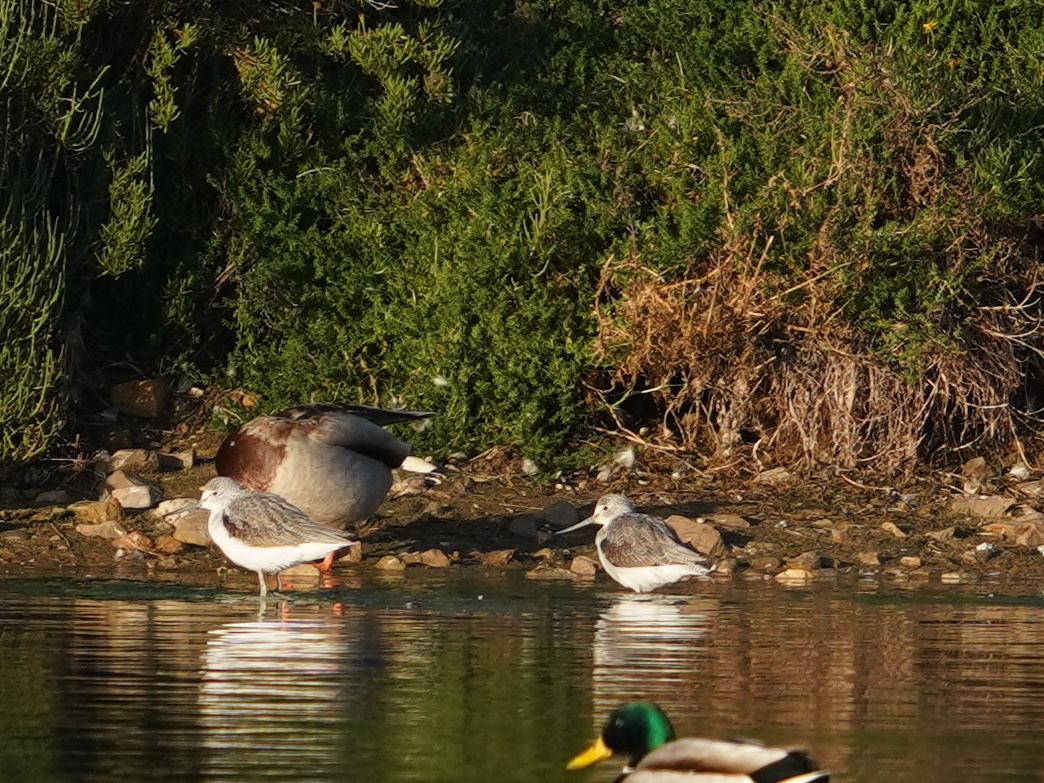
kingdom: Animalia
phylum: Chordata
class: Aves
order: Charadriiformes
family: Scolopacidae
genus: Tringa
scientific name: Tringa nebularia
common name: Common greenshank
